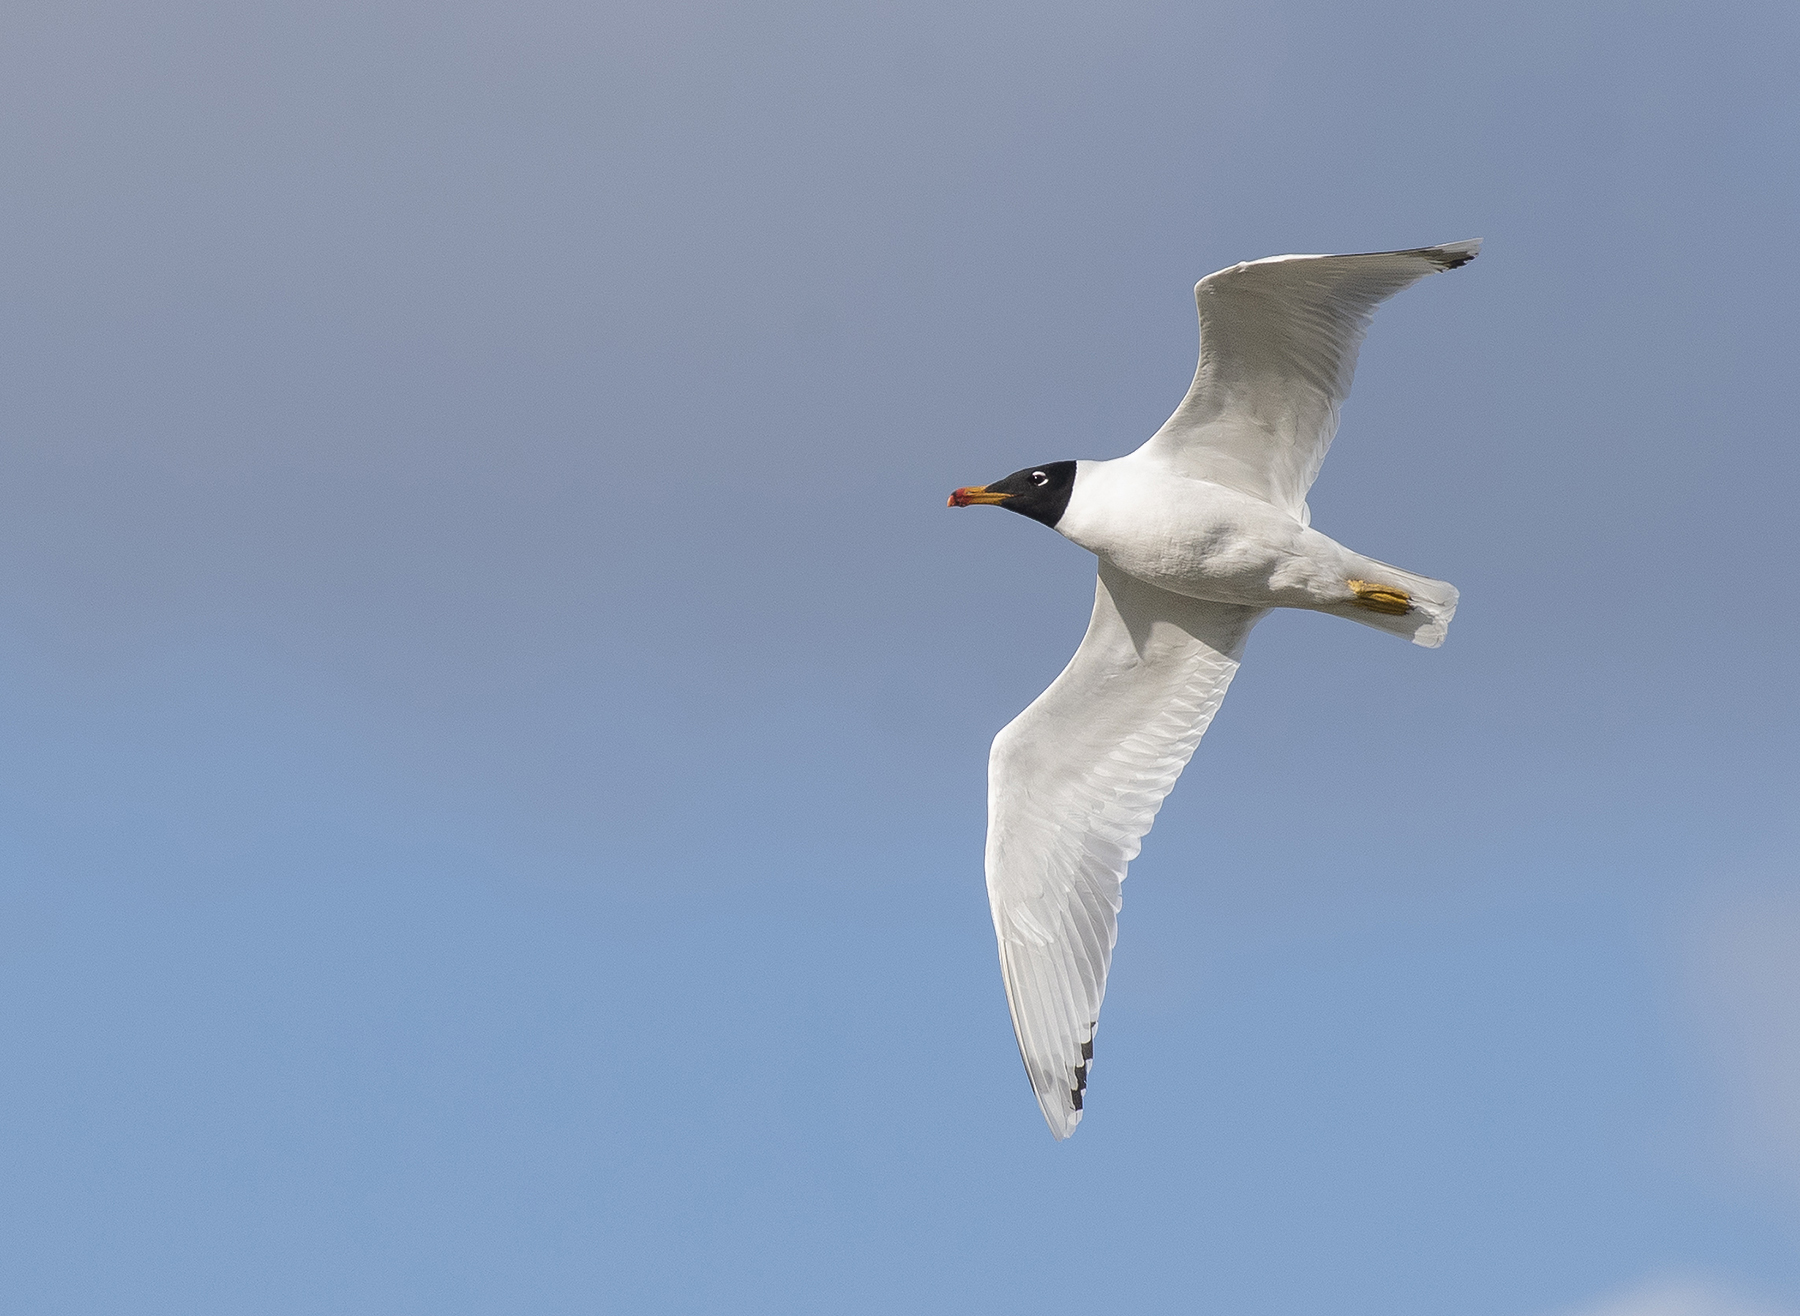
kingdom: Animalia
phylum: Chordata
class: Aves
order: Charadriiformes
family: Laridae
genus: Ichthyaetus
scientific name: Ichthyaetus ichthyaetus
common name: Pallas's gull
